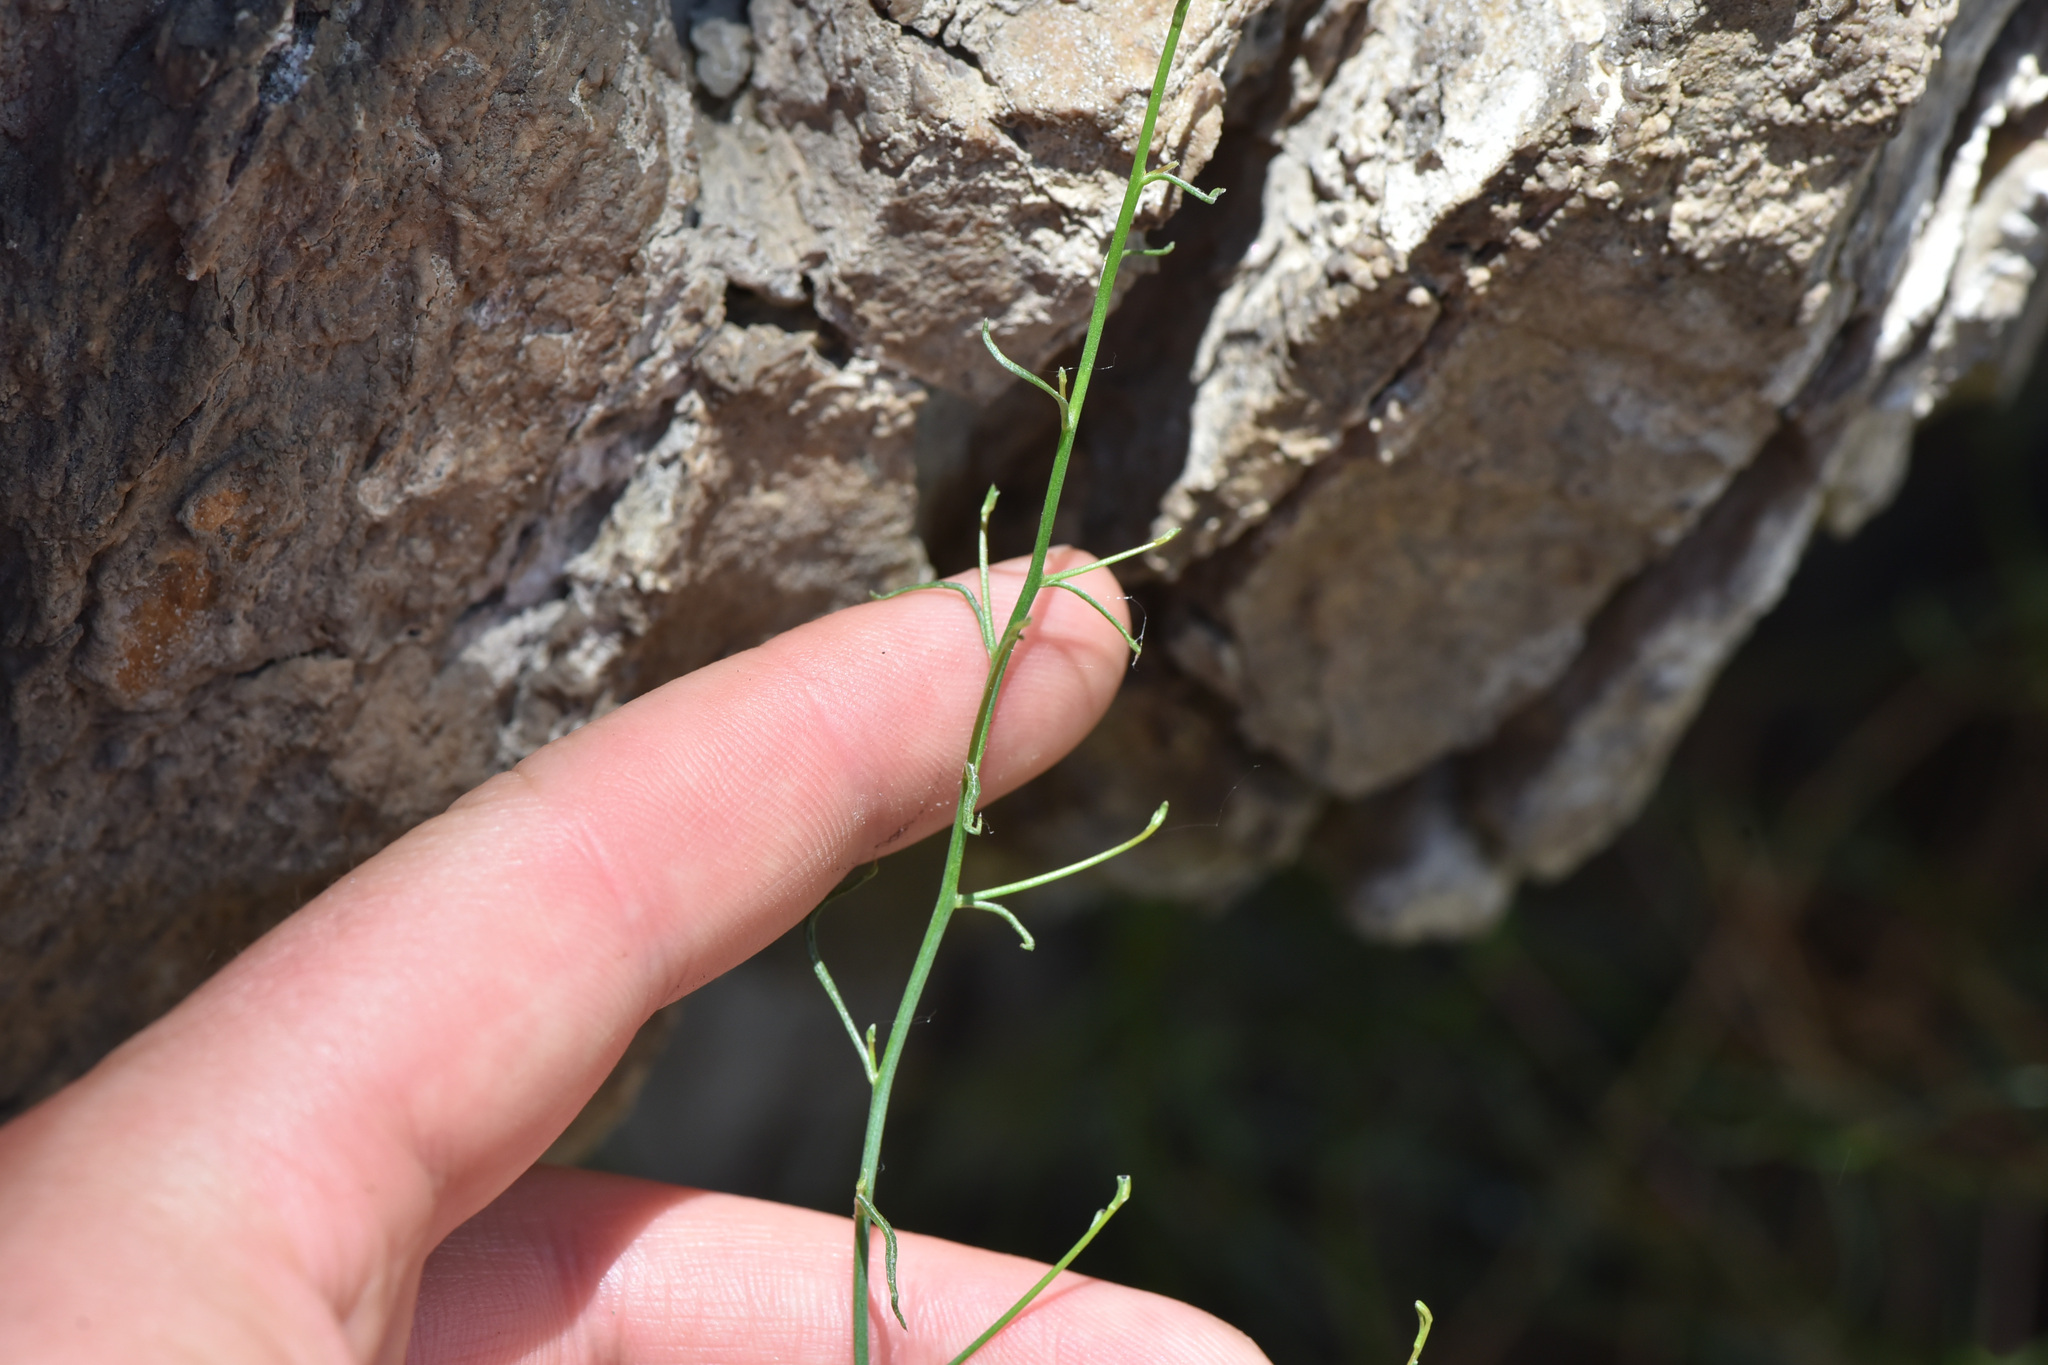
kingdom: Plantae
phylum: Tracheophyta
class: Magnoliopsida
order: Asterales
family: Asteraceae
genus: Stephanomeria
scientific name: Stephanomeria tenuifolia
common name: Slender wirelettuce
